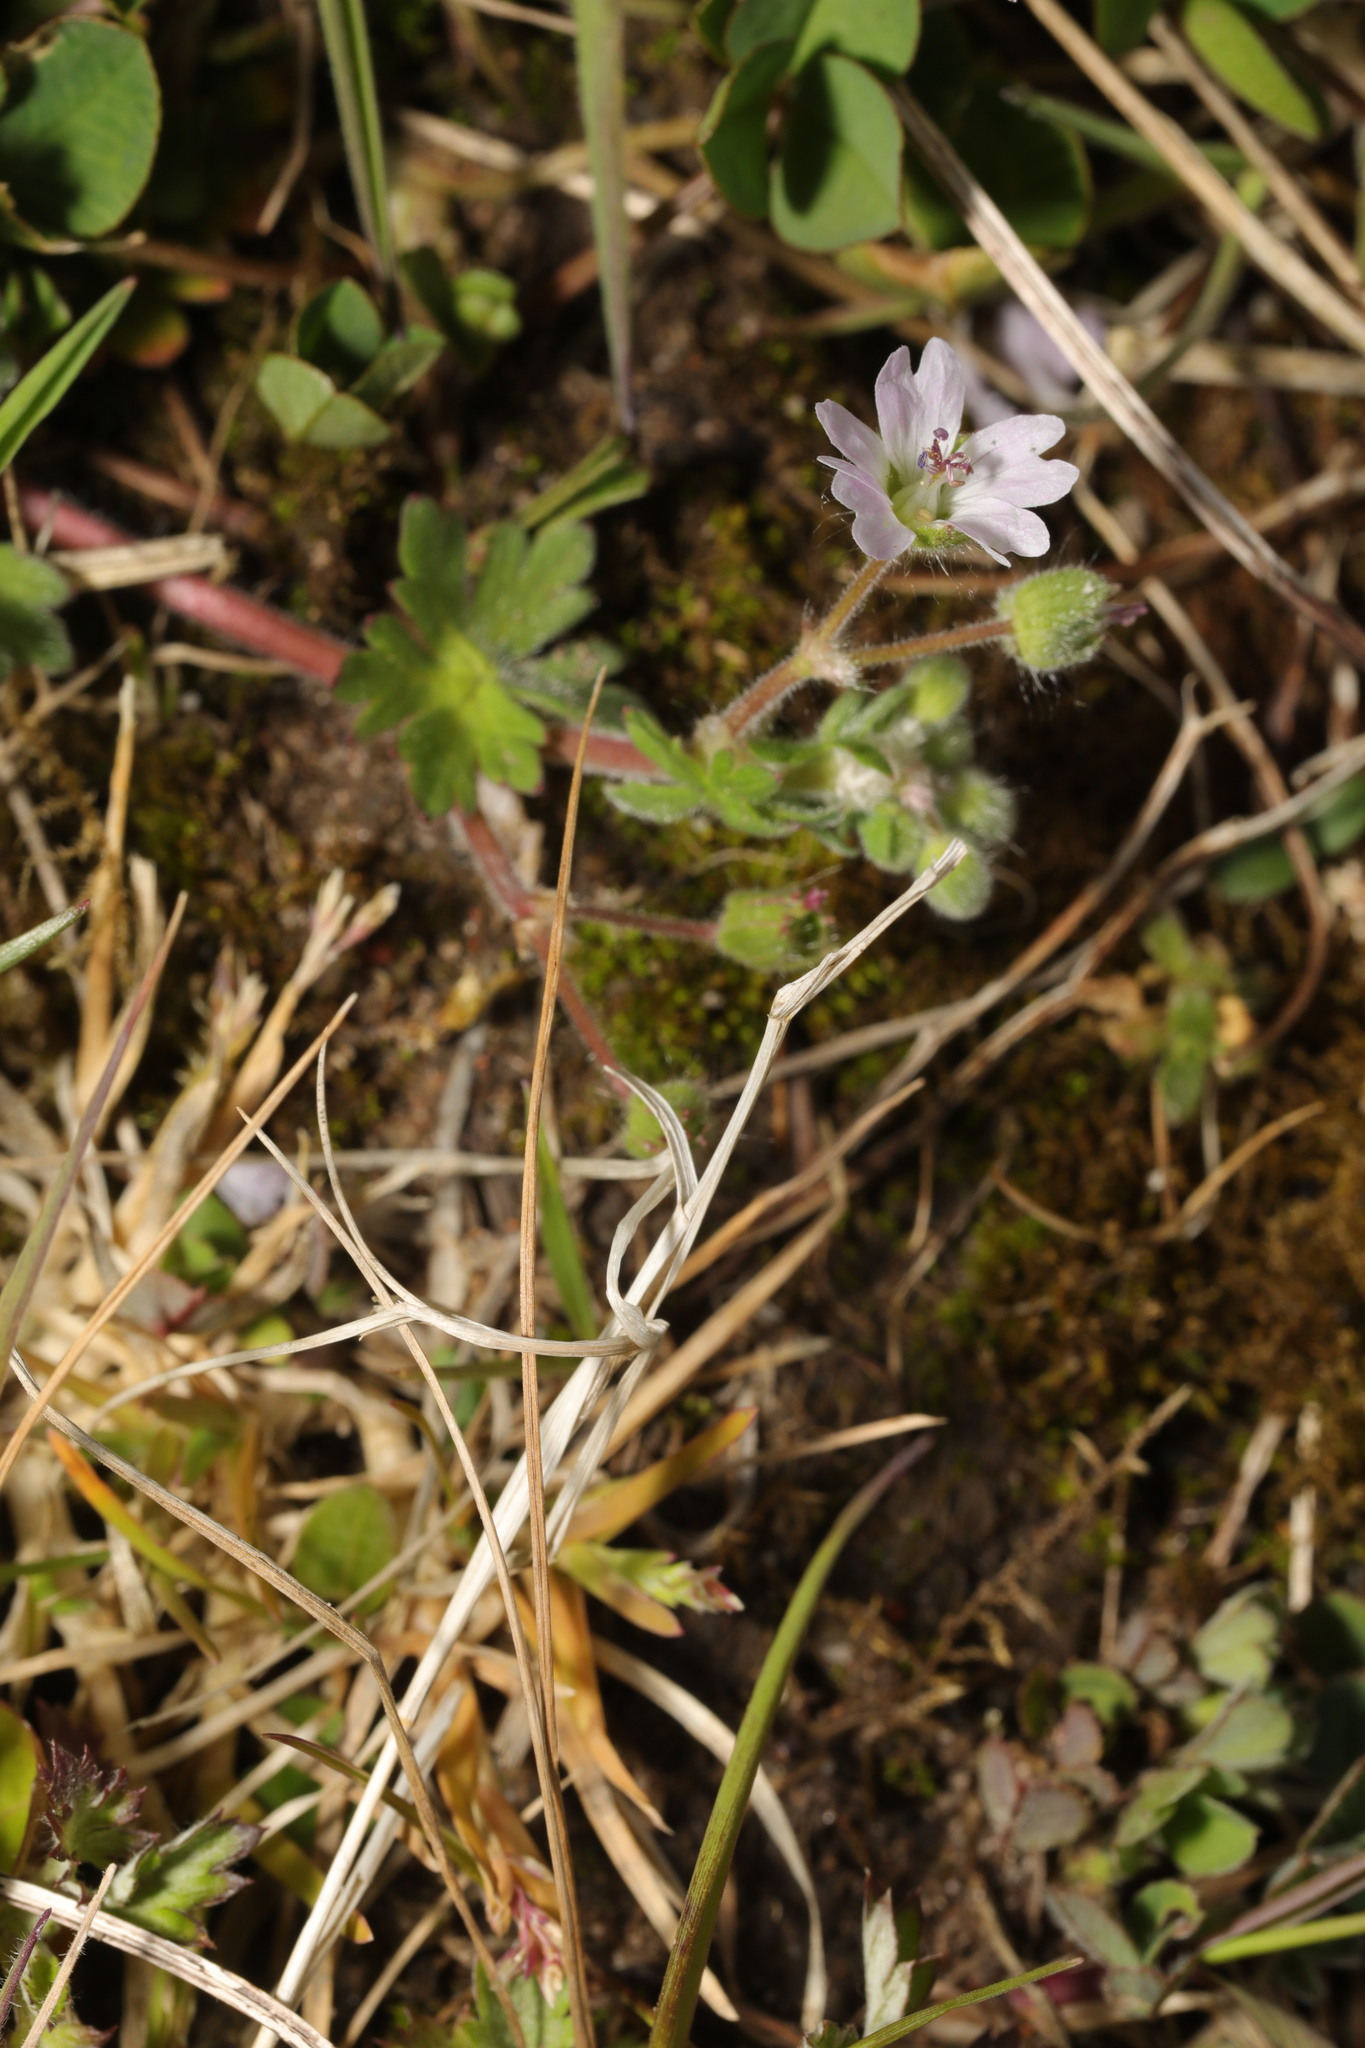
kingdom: Plantae
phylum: Tracheophyta
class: Magnoliopsida
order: Geraniales
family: Geraniaceae
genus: Geranium
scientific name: Geranium molle
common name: Dove's-foot crane's-bill
